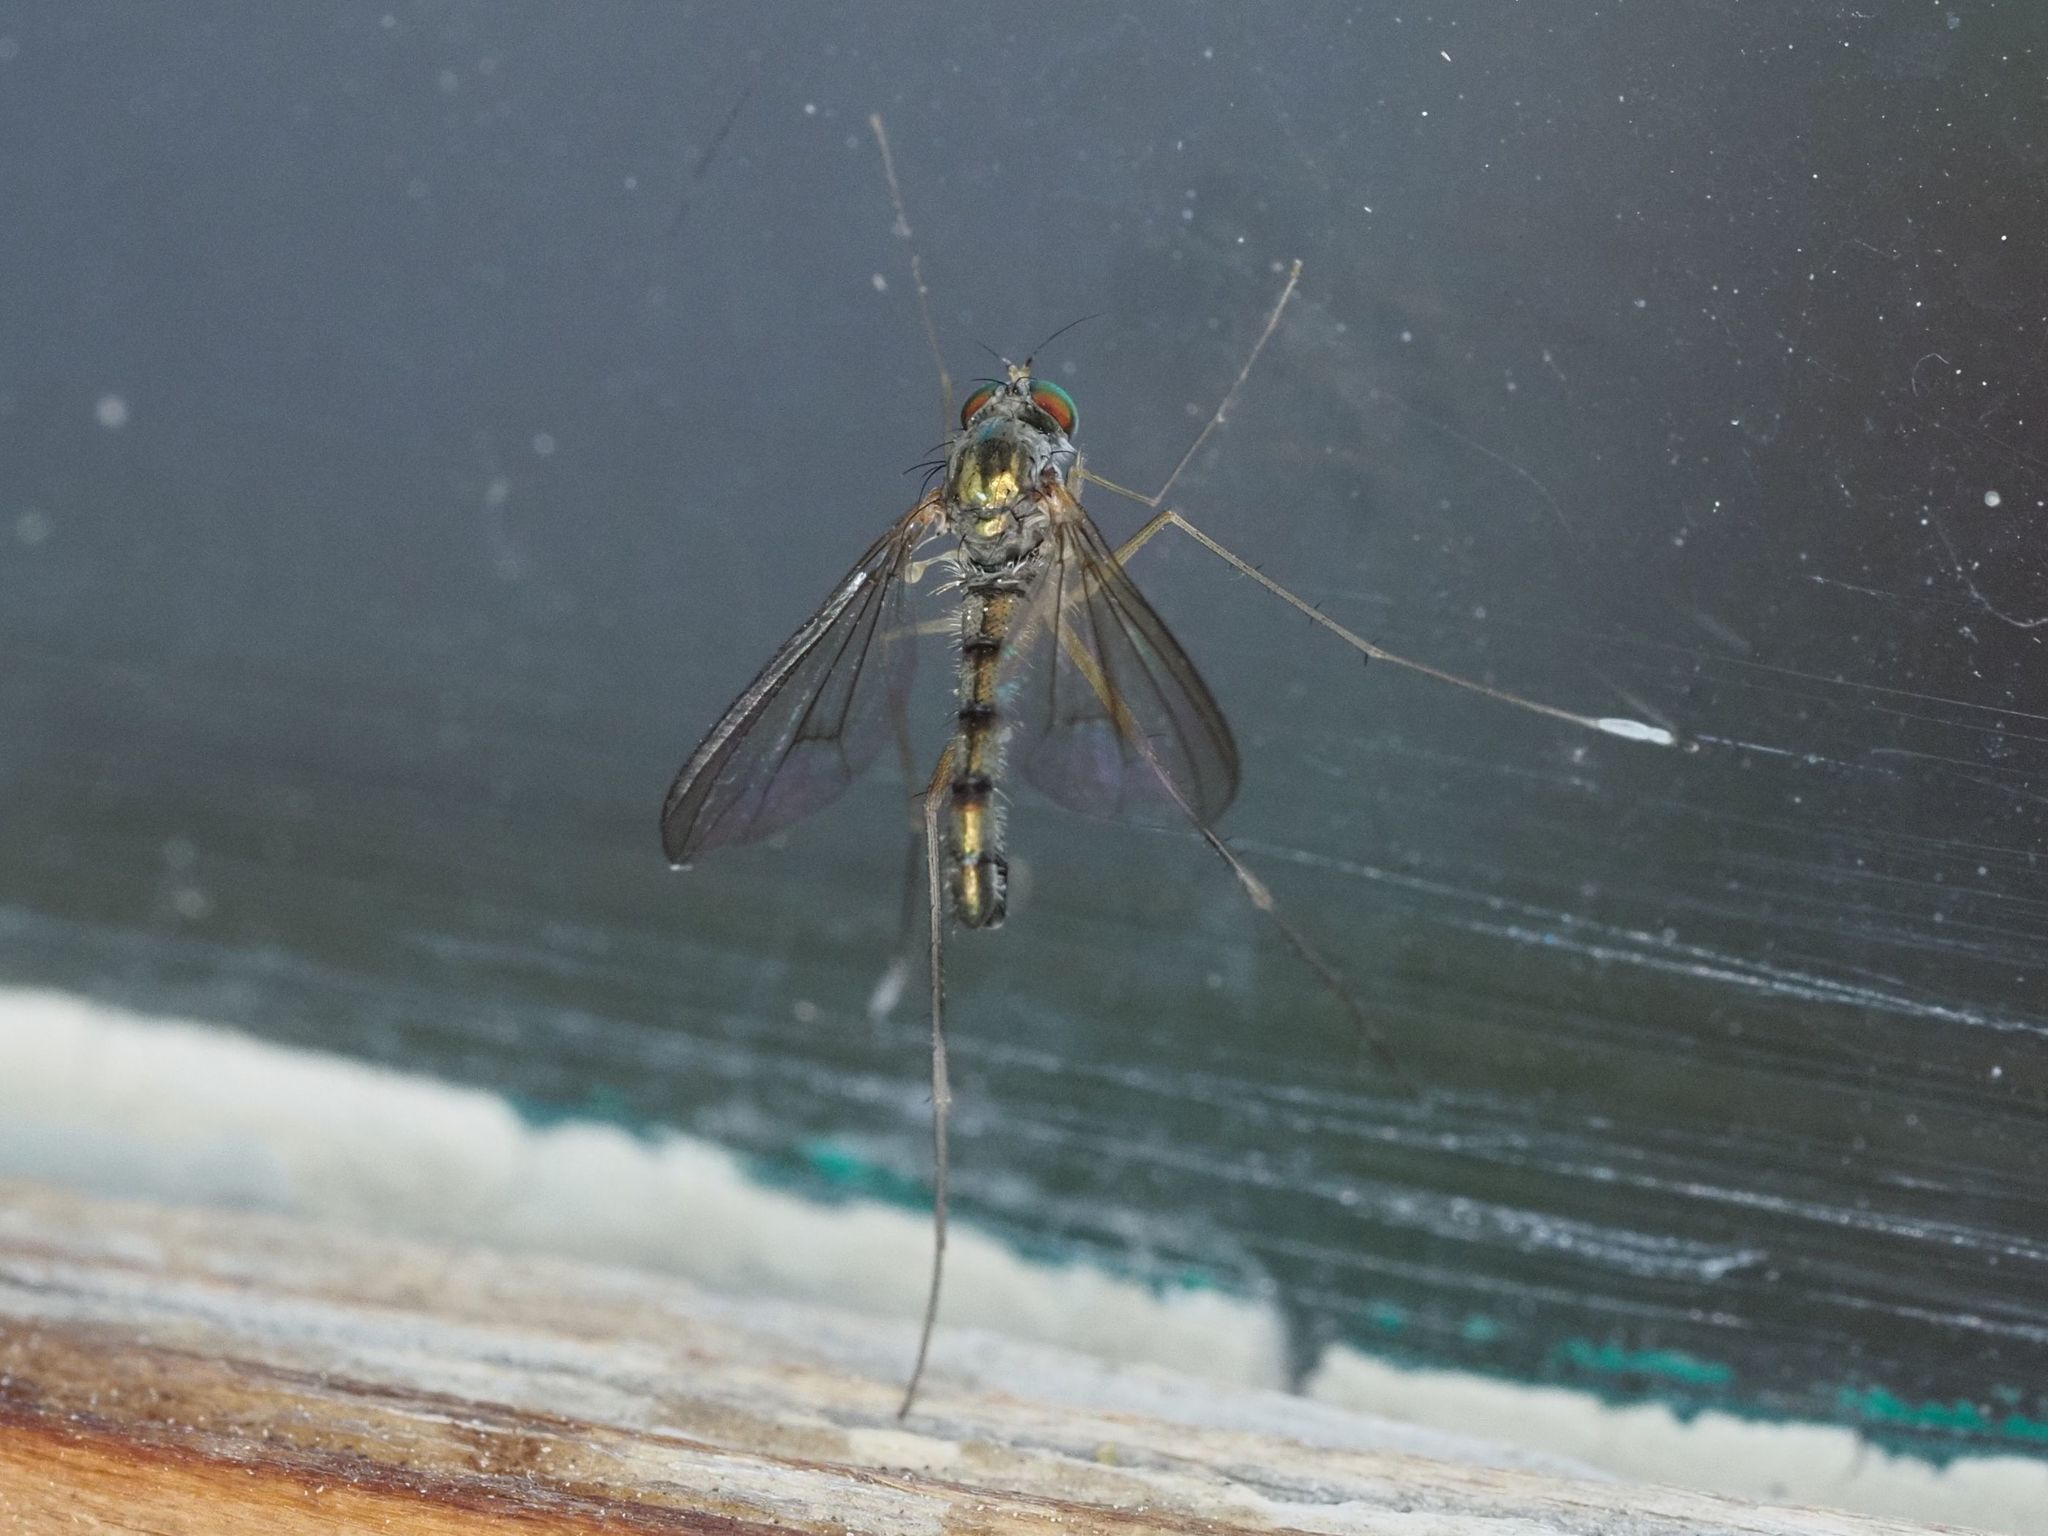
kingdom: Animalia
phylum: Arthropoda
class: Insecta
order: Diptera
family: Dolichopodidae
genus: Sciapus
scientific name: Sciapus platypterus
